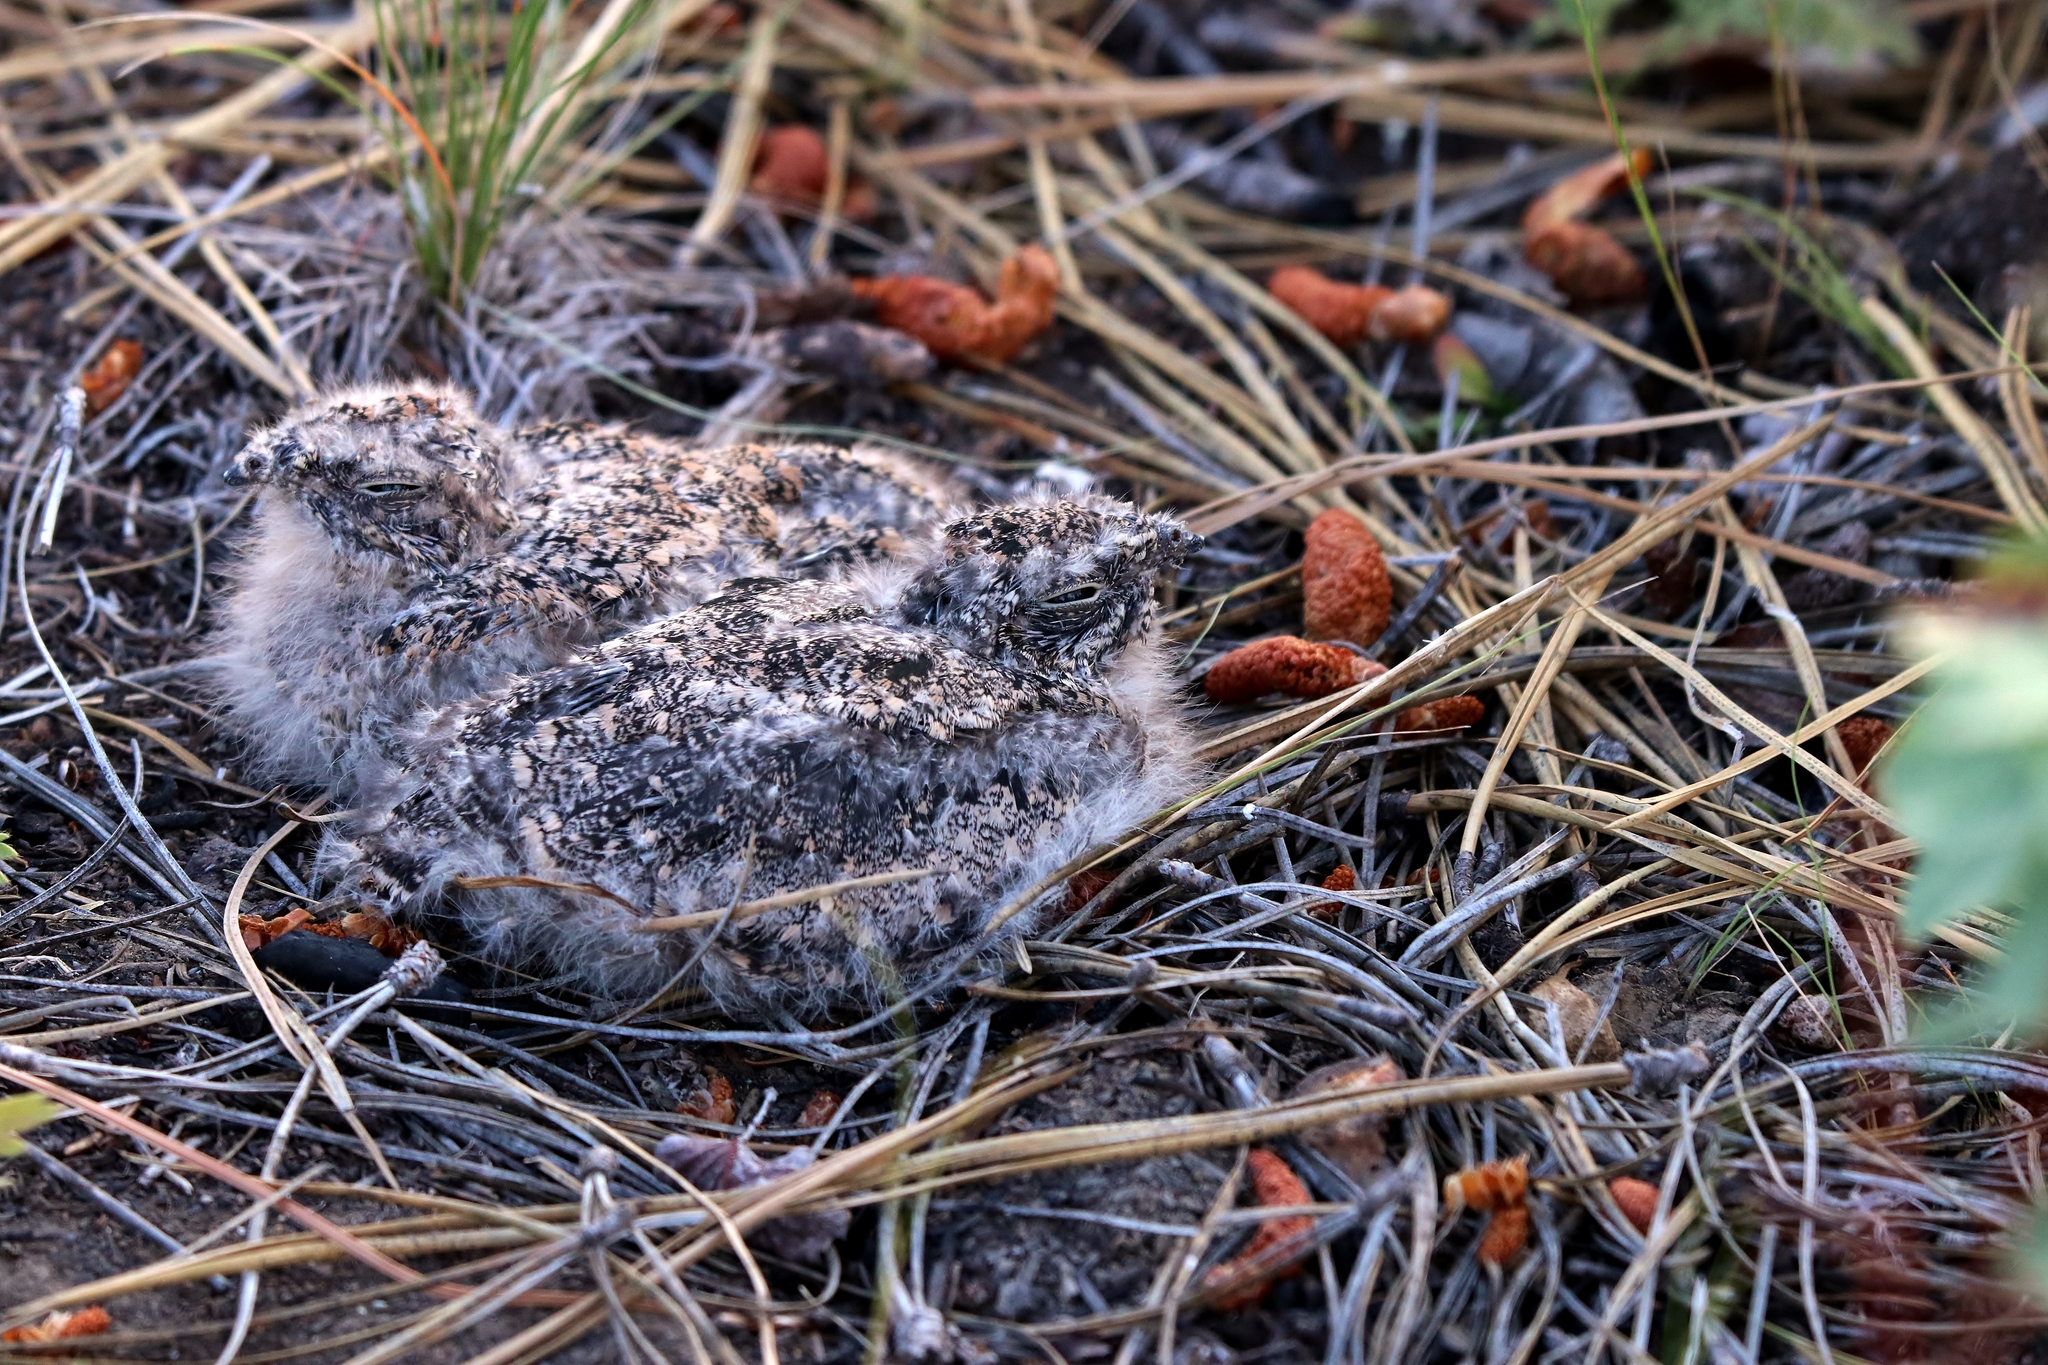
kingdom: Animalia
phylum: Chordata
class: Aves
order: Caprimulgiformes
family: Caprimulgidae
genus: Chordeiles
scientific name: Chordeiles minor
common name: Common nighthawk
